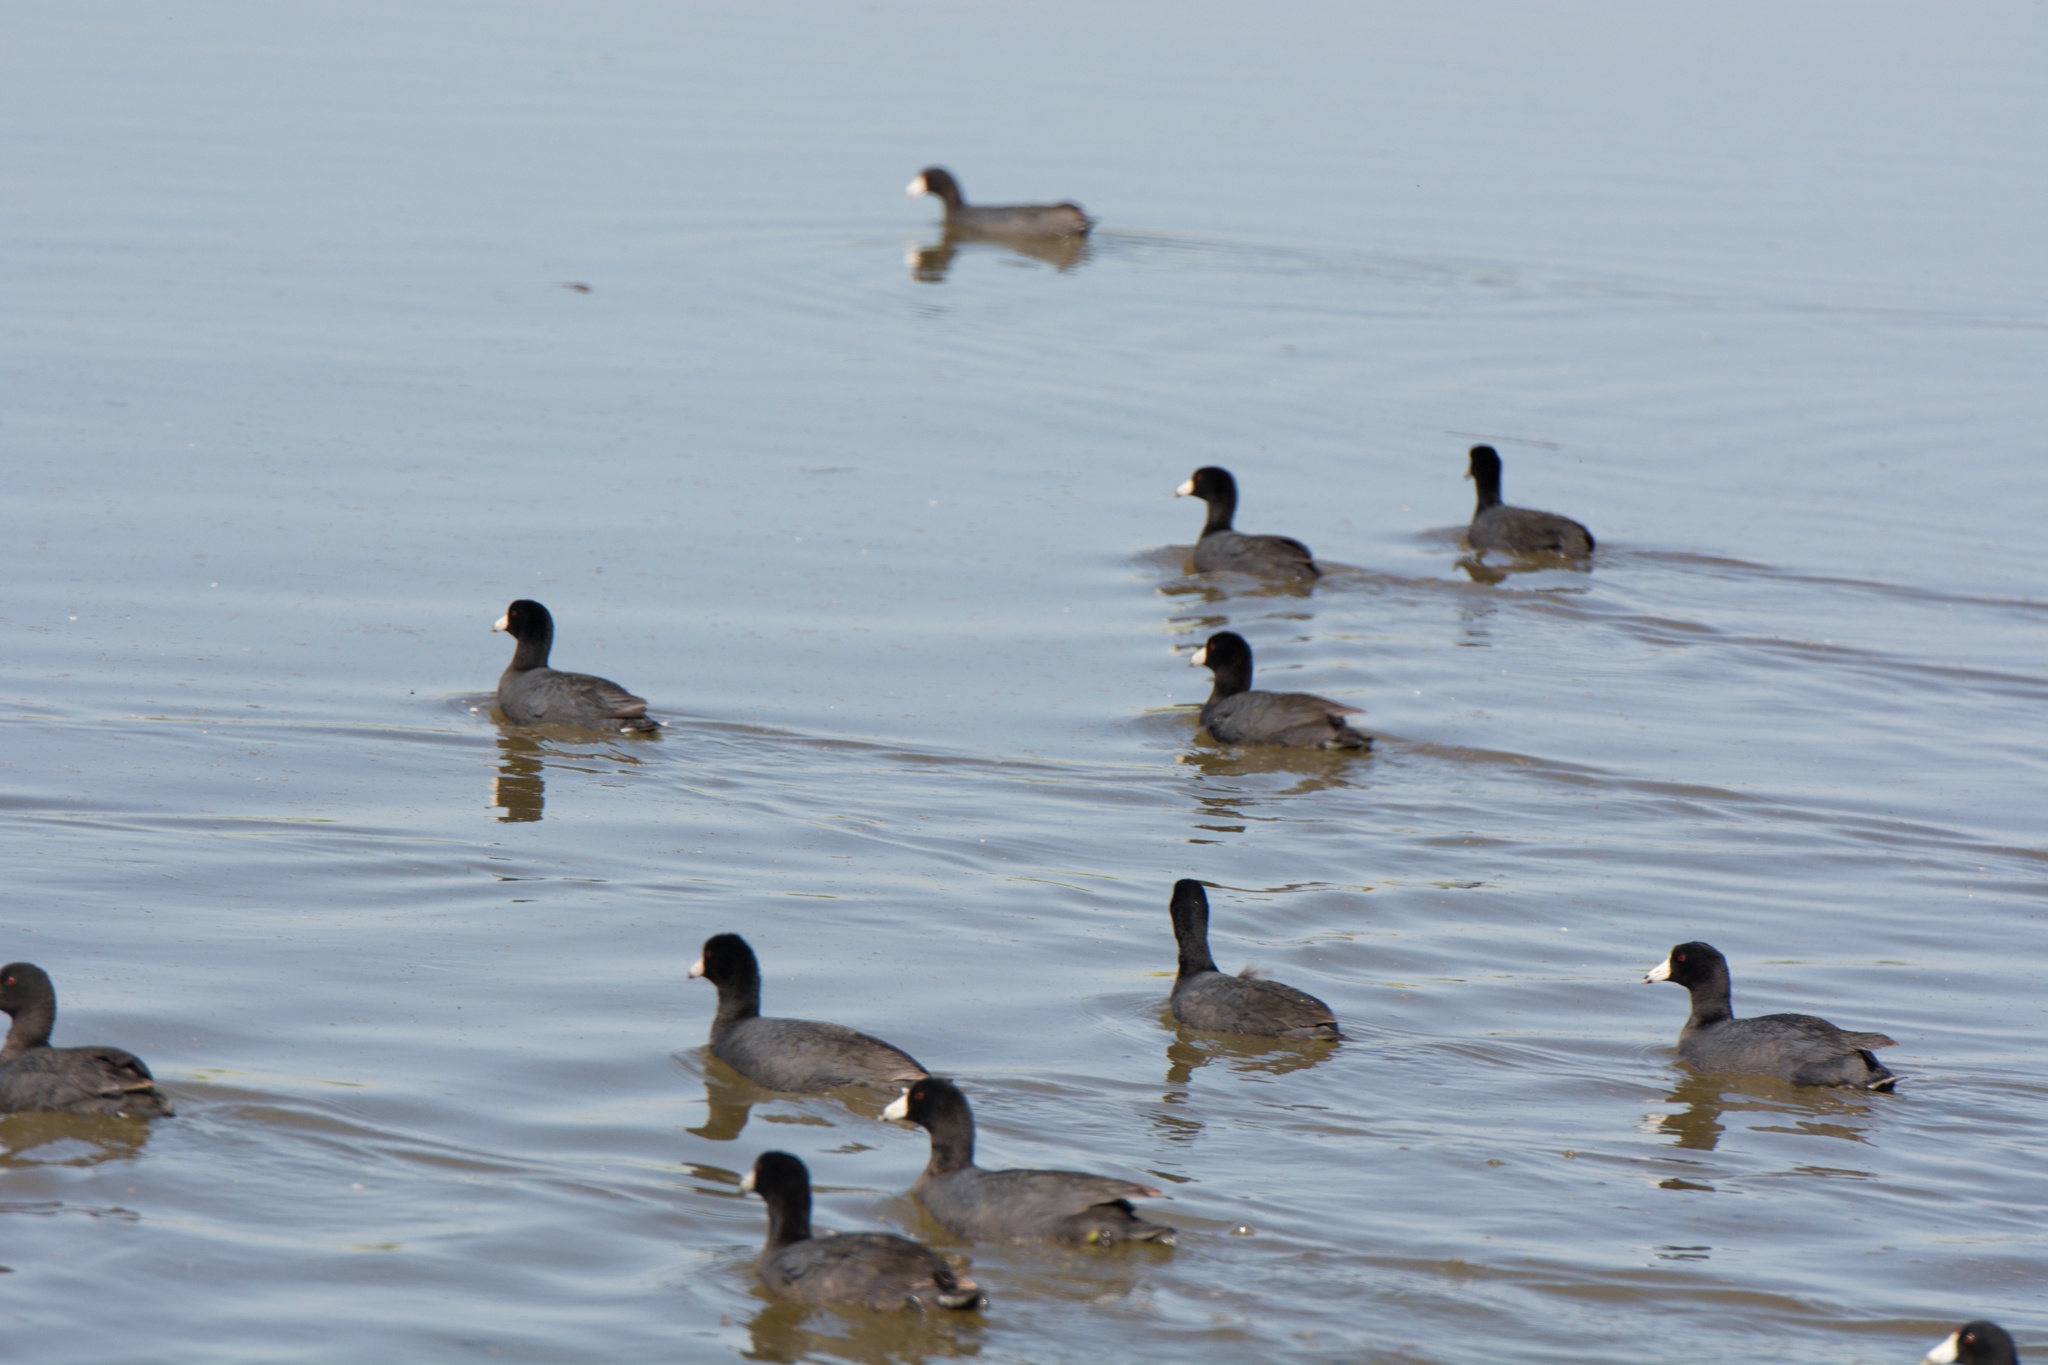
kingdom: Animalia
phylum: Chordata
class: Aves
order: Gruiformes
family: Rallidae
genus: Fulica
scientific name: Fulica americana
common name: American coot
